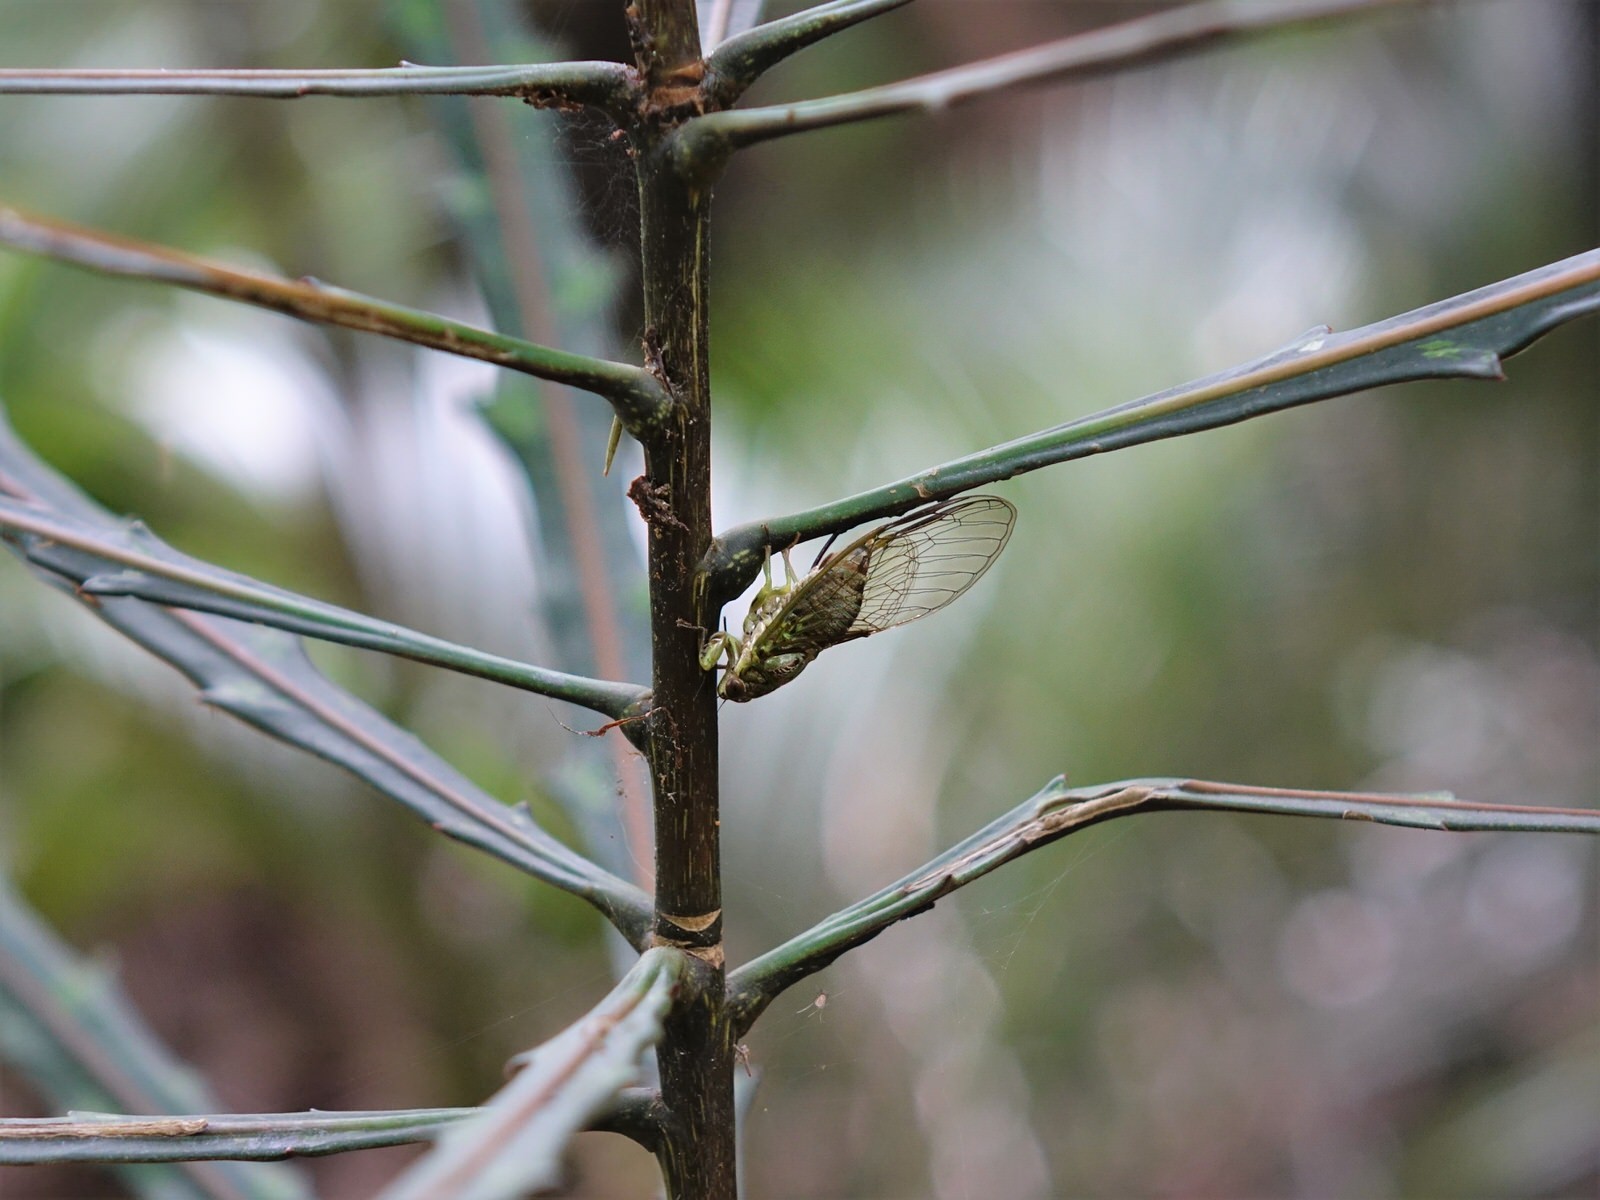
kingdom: Animalia
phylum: Arthropoda
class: Insecta
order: Hemiptera
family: Cicadidae
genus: Kikihia
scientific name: Kikihia scutellaris
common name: Lesser bronze cicada
